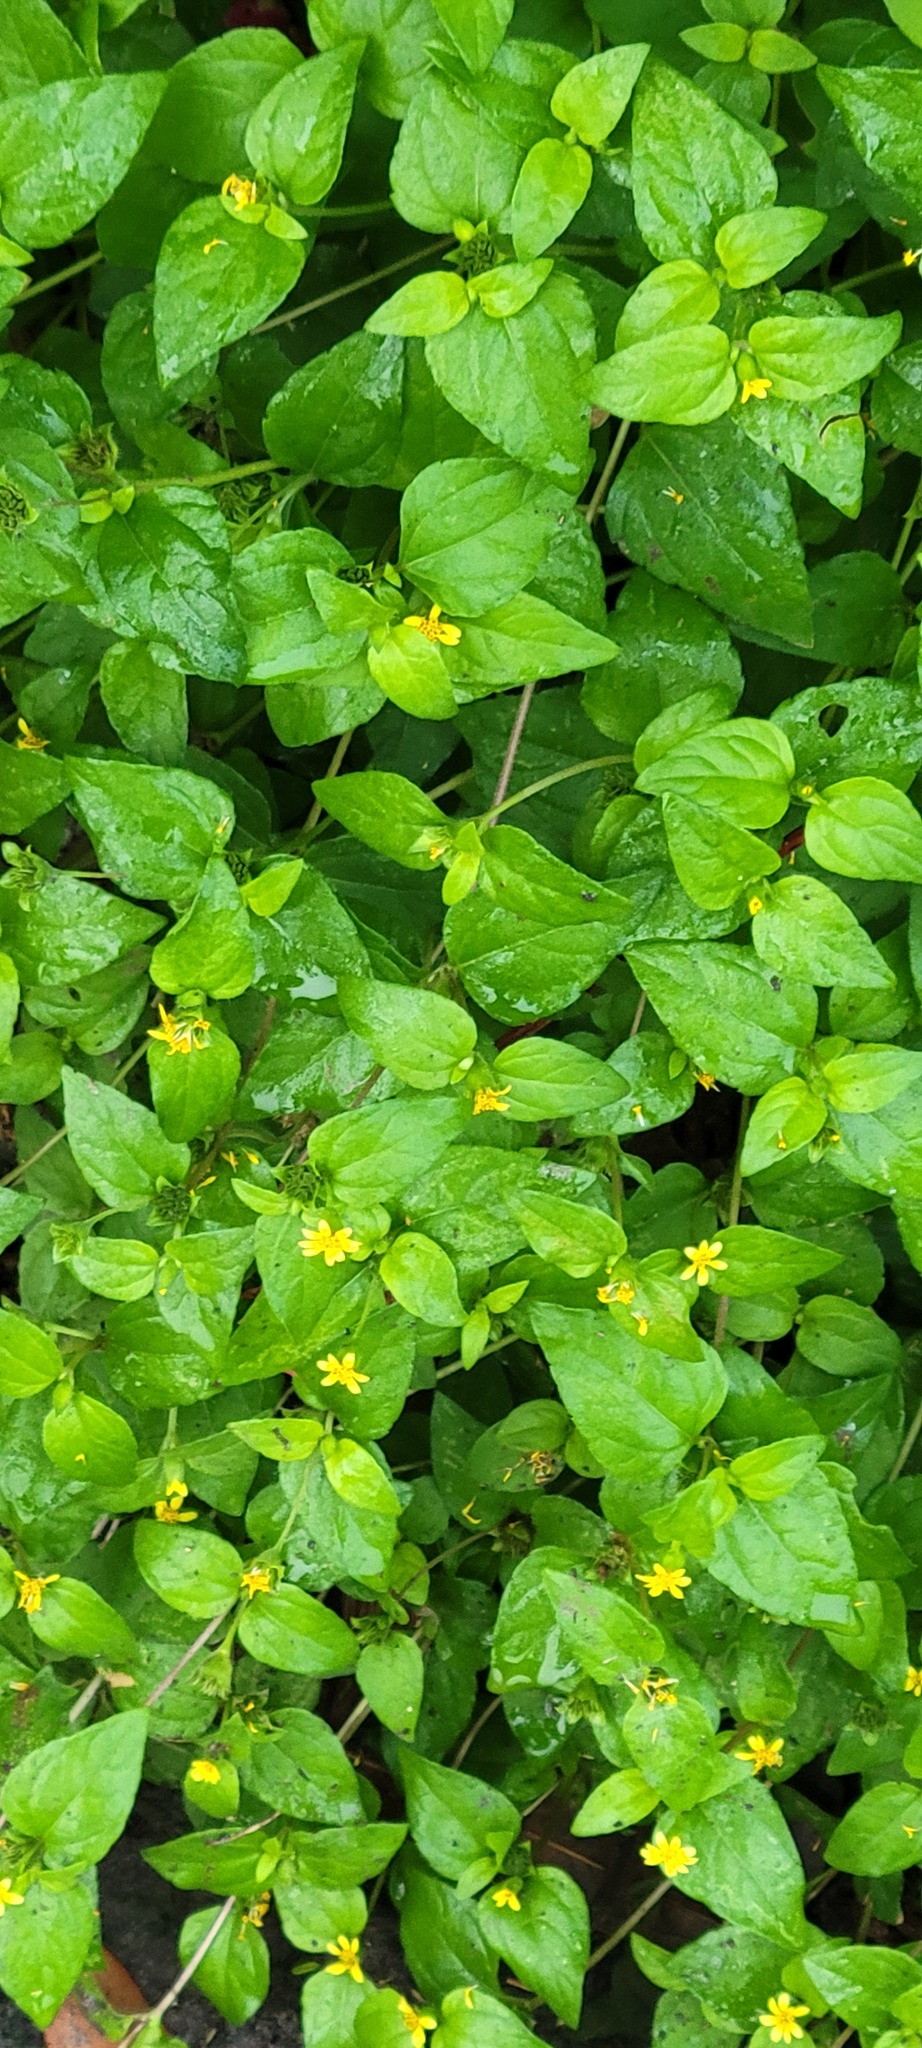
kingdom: Plantae
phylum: Tracheophyta
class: Magnoliopsida
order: Asterales
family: Asteraceae
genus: Calyptocarpus
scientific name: Calyptocarpus vialis
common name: Straggler daisy
